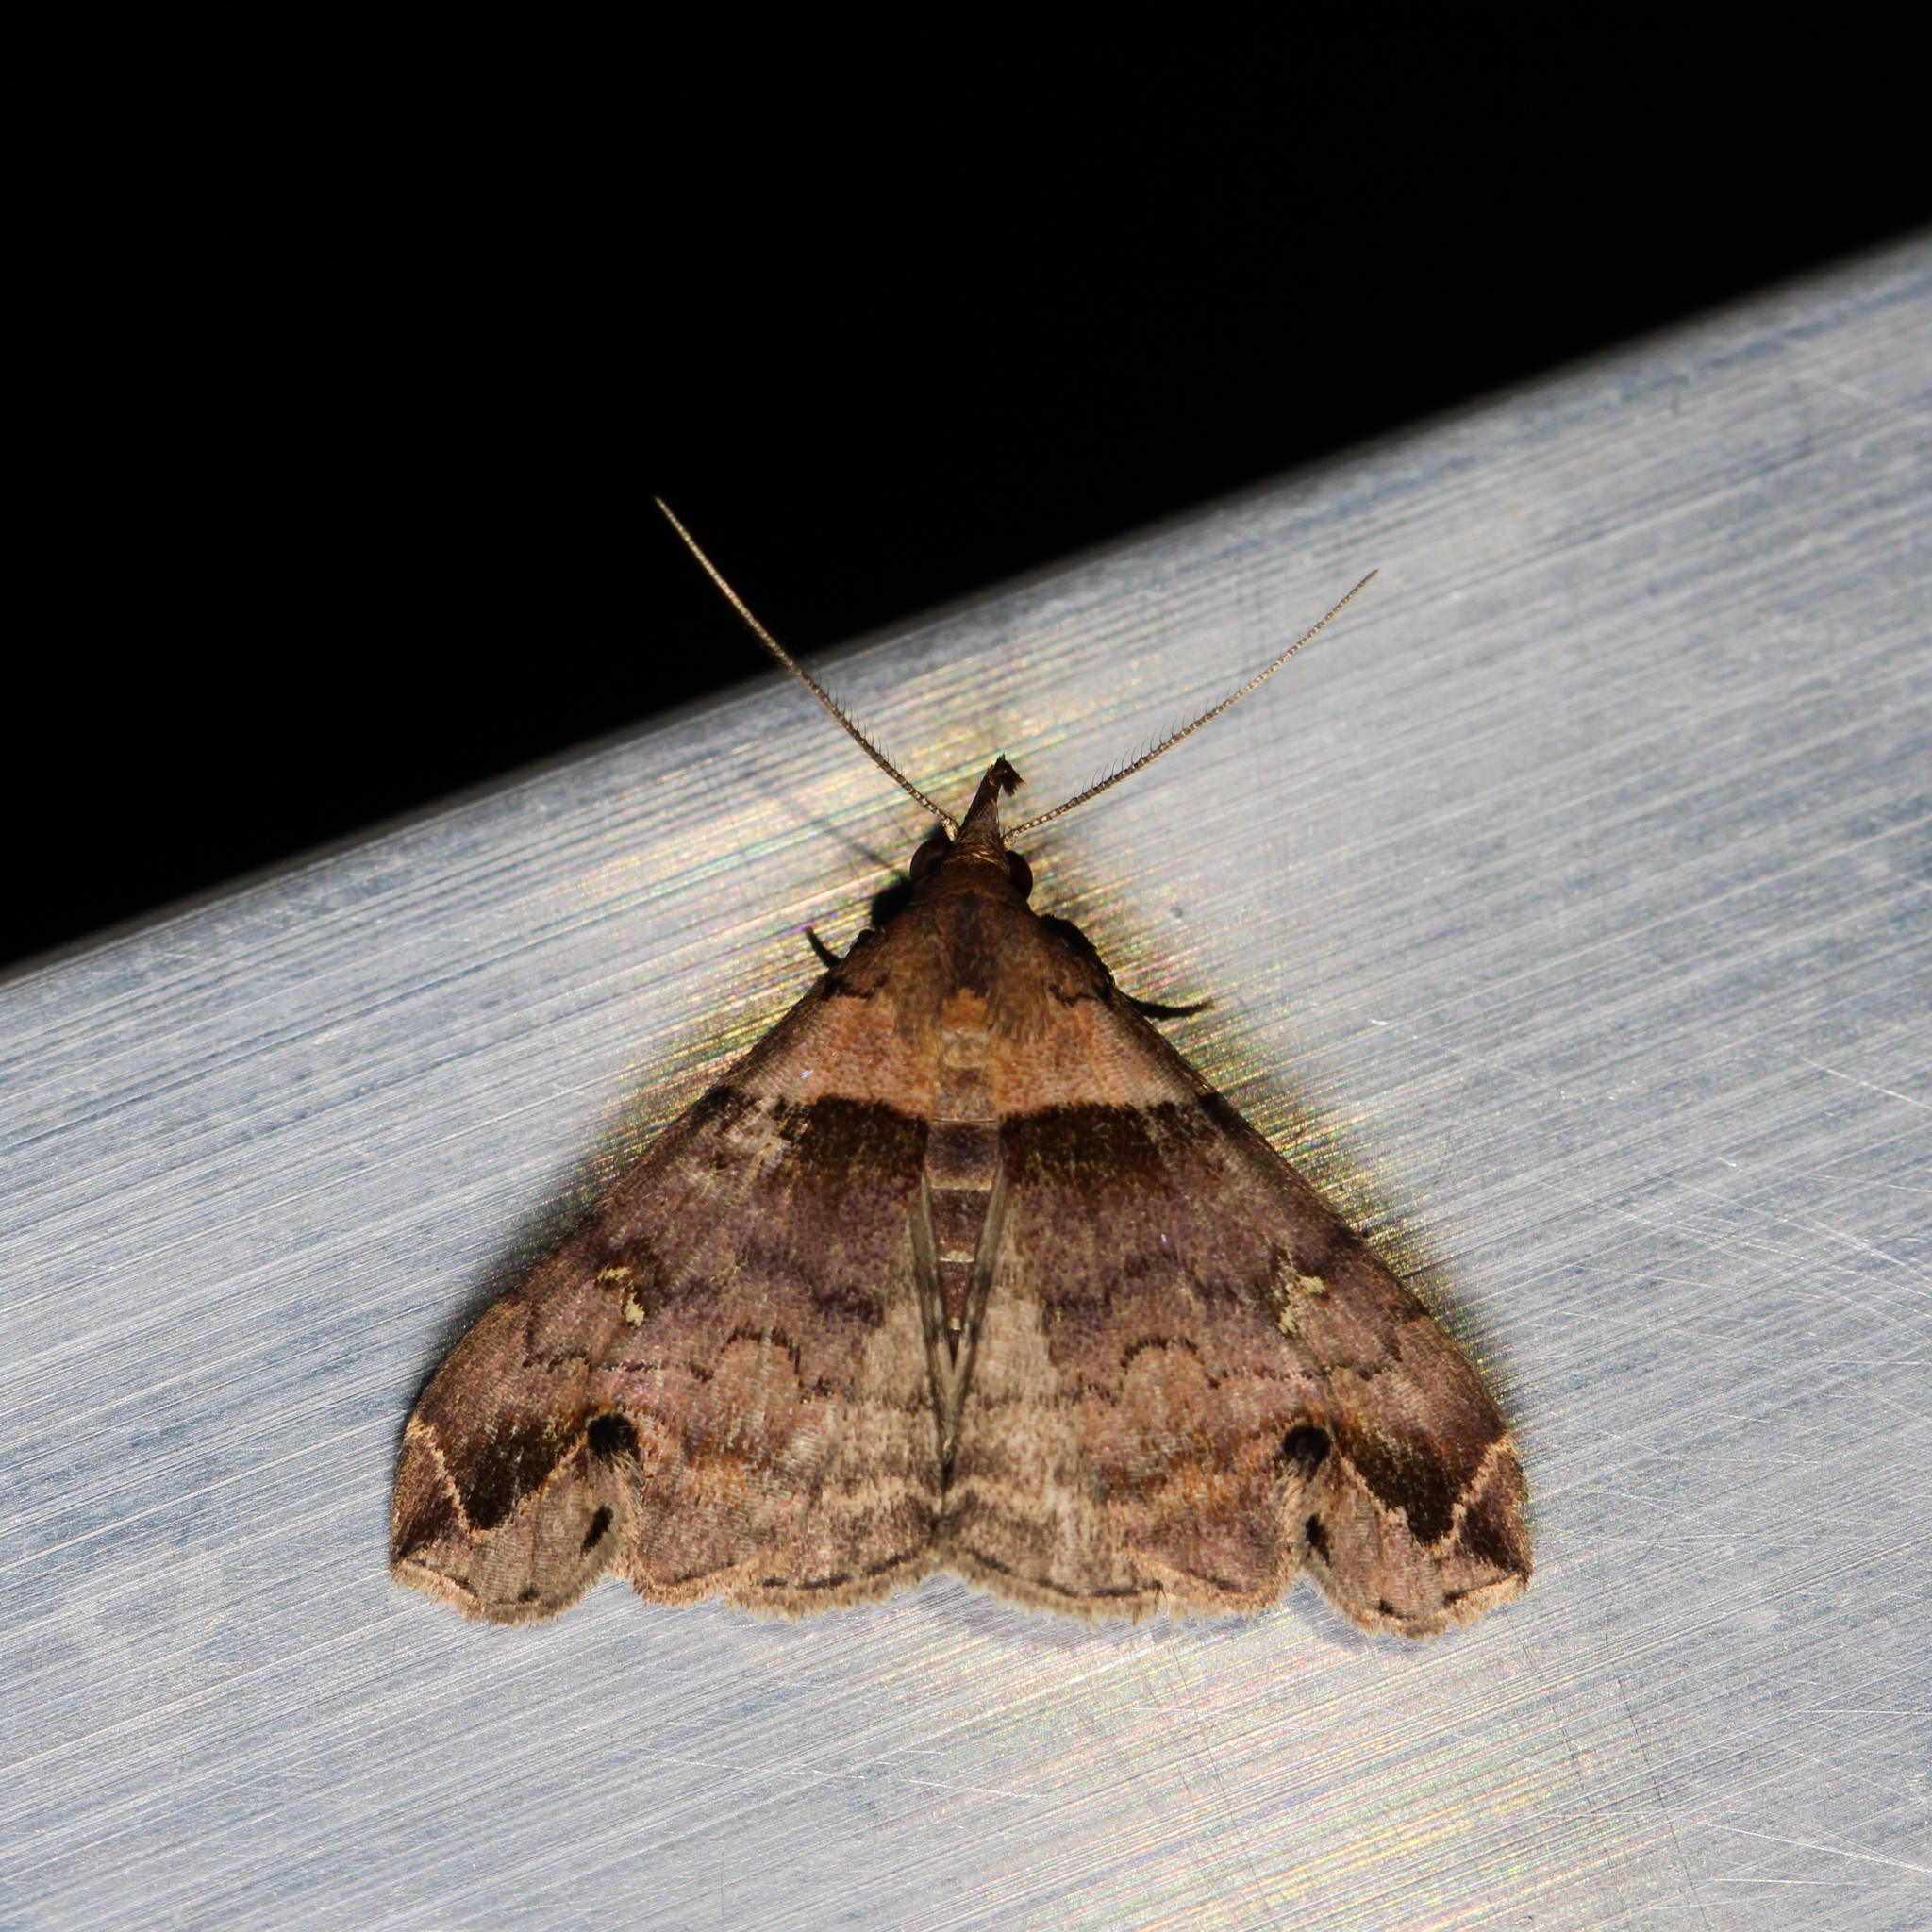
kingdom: Animalia
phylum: Arthropoda
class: Insecta
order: Lepidoptera
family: Erebidae
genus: Lascoria
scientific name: Lascoria ambigualis
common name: Ambiguous moth
